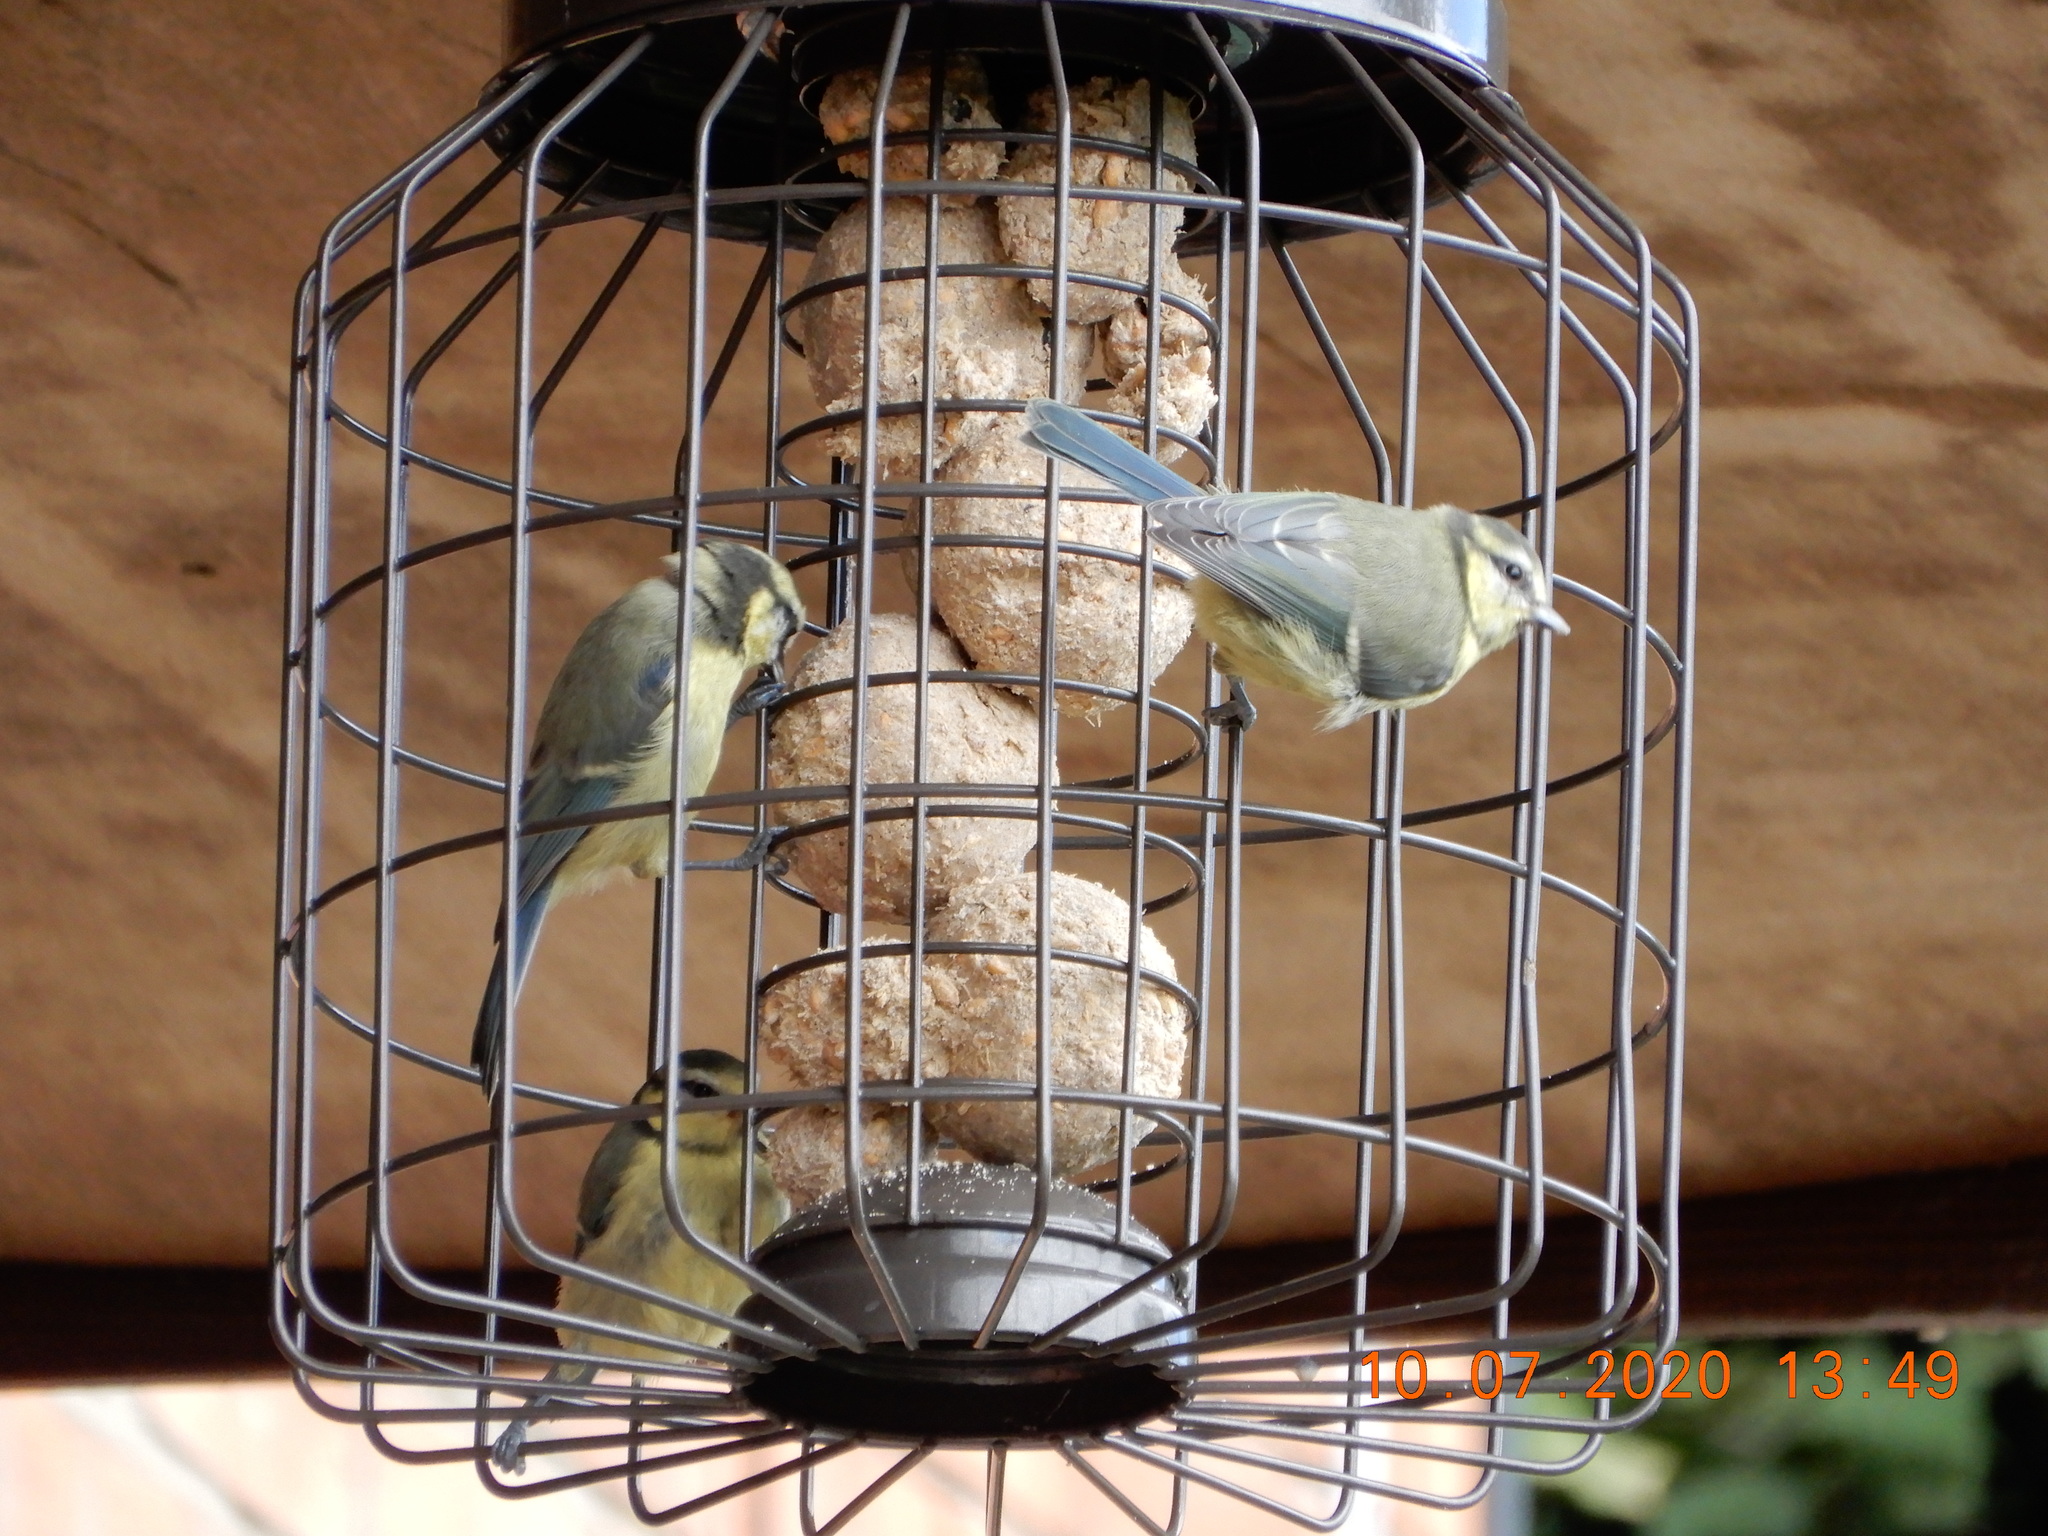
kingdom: Animalia
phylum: Chordata
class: Aves
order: Passeriformes
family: Paridae
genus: Cyanistes
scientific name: Cyanistes caeruleus
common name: Eurasian blue tit
